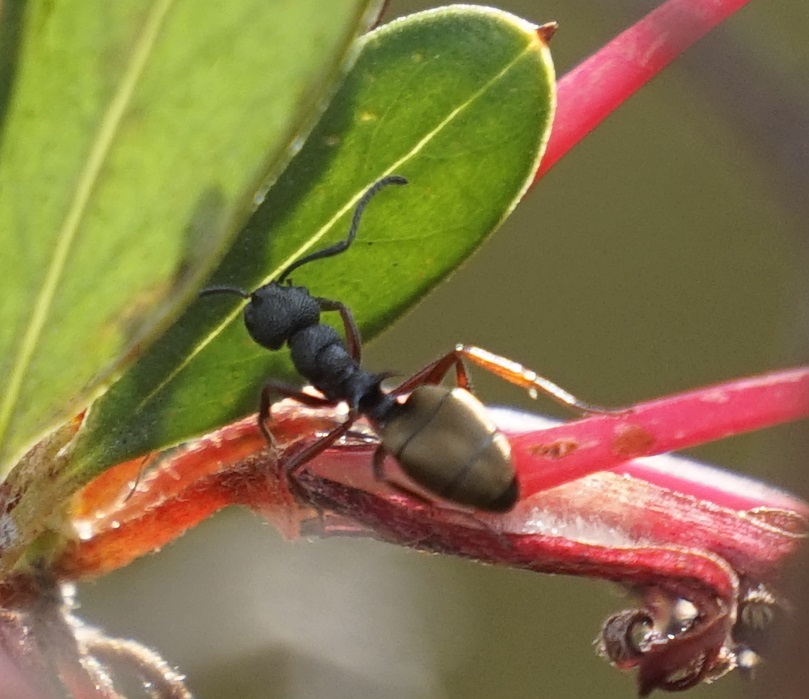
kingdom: Animalia
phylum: Arthropoda
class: Insecta
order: Hymenoptera
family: Formicidae
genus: Dolichoderus
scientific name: Dolichoderus scabridus
